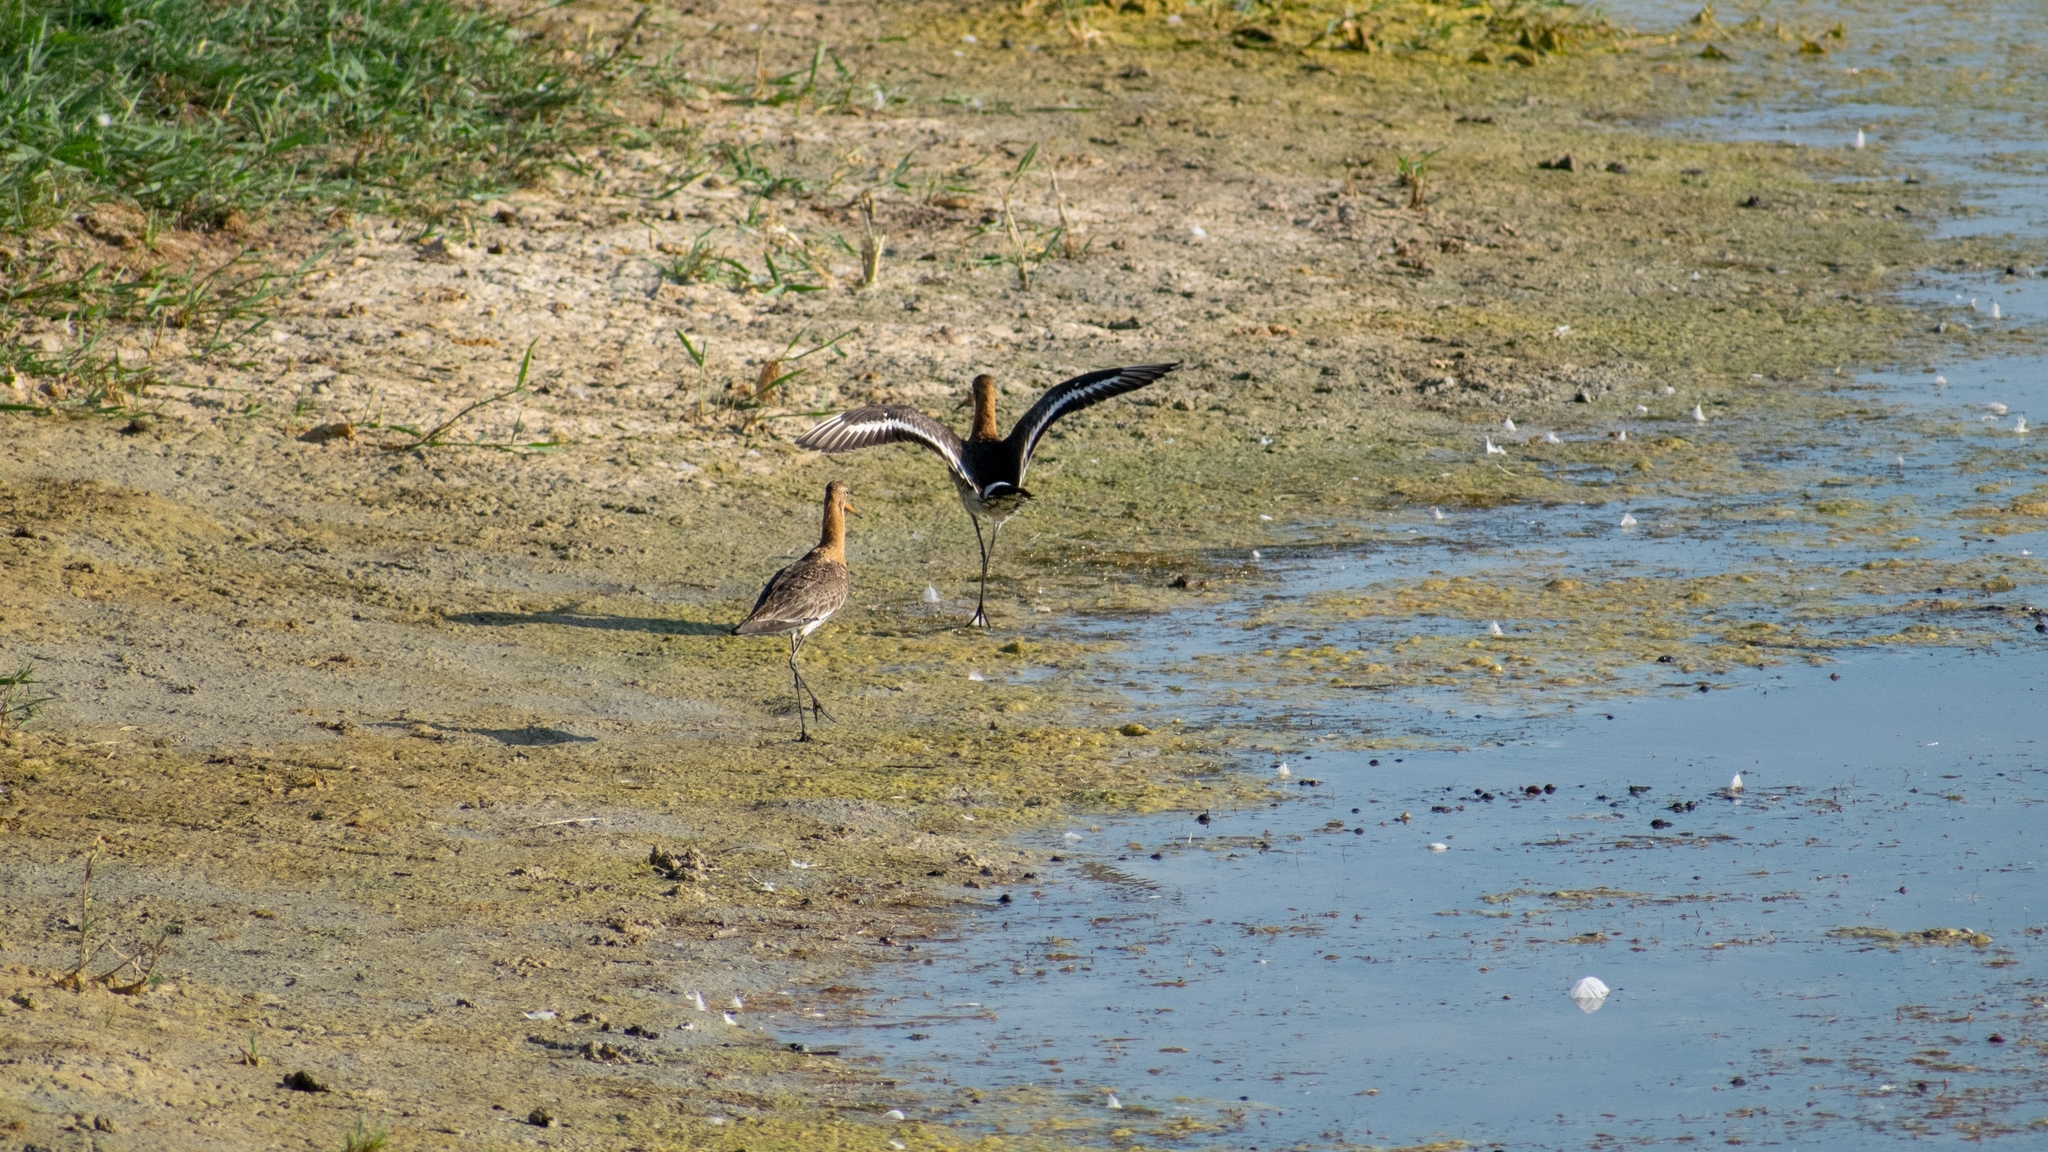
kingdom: Animalia
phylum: Chordata
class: Aves
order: Charadriiformes
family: Scolopacidae
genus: Limosa
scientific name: Limosa limosa
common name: Black-tailed godwit
